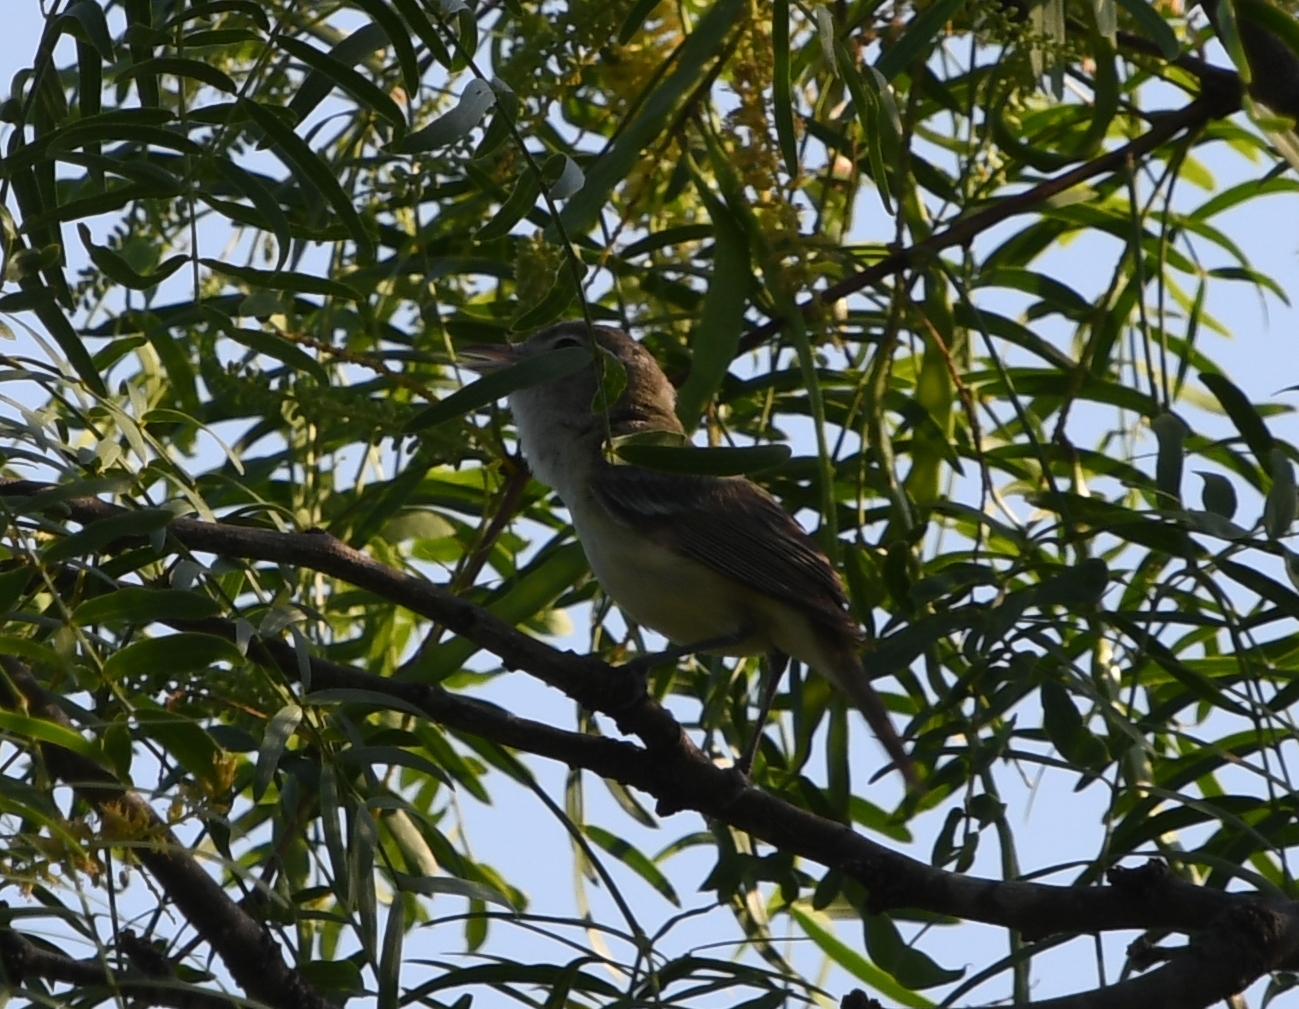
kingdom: Animalia
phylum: Chordata
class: Aves
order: Passeriformes
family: Vireonidae
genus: Vireo
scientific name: Vireo bellii
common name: Bell's vireo
